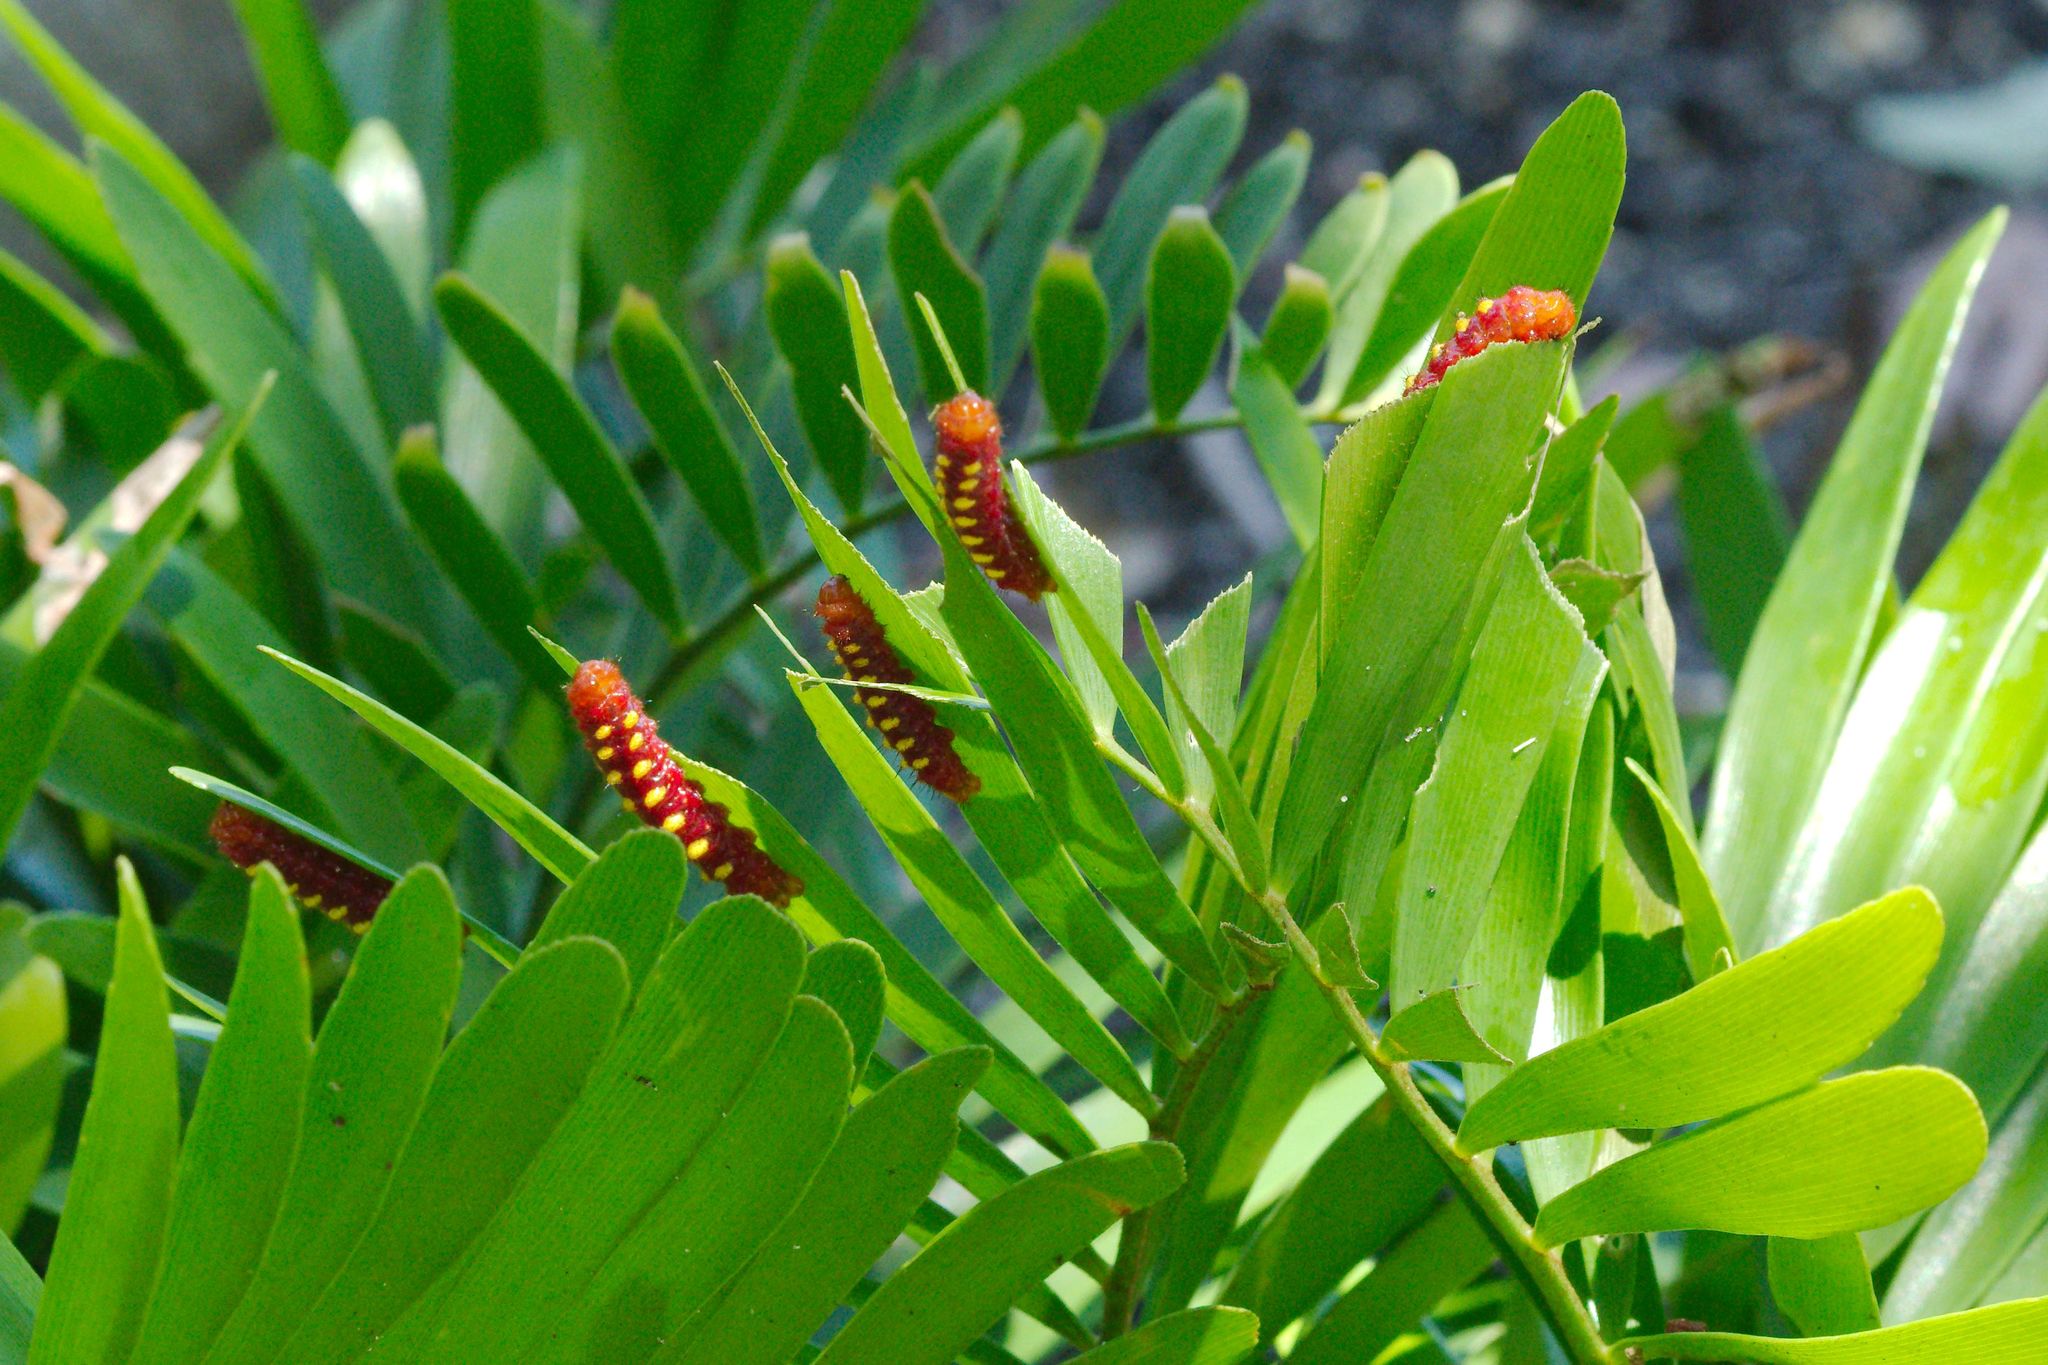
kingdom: Animalia
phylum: Arthropoda
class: Insecta
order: Lepidoptera
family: Lycaenidae
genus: Eumaeus
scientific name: Eumaeus atala
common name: Atala
